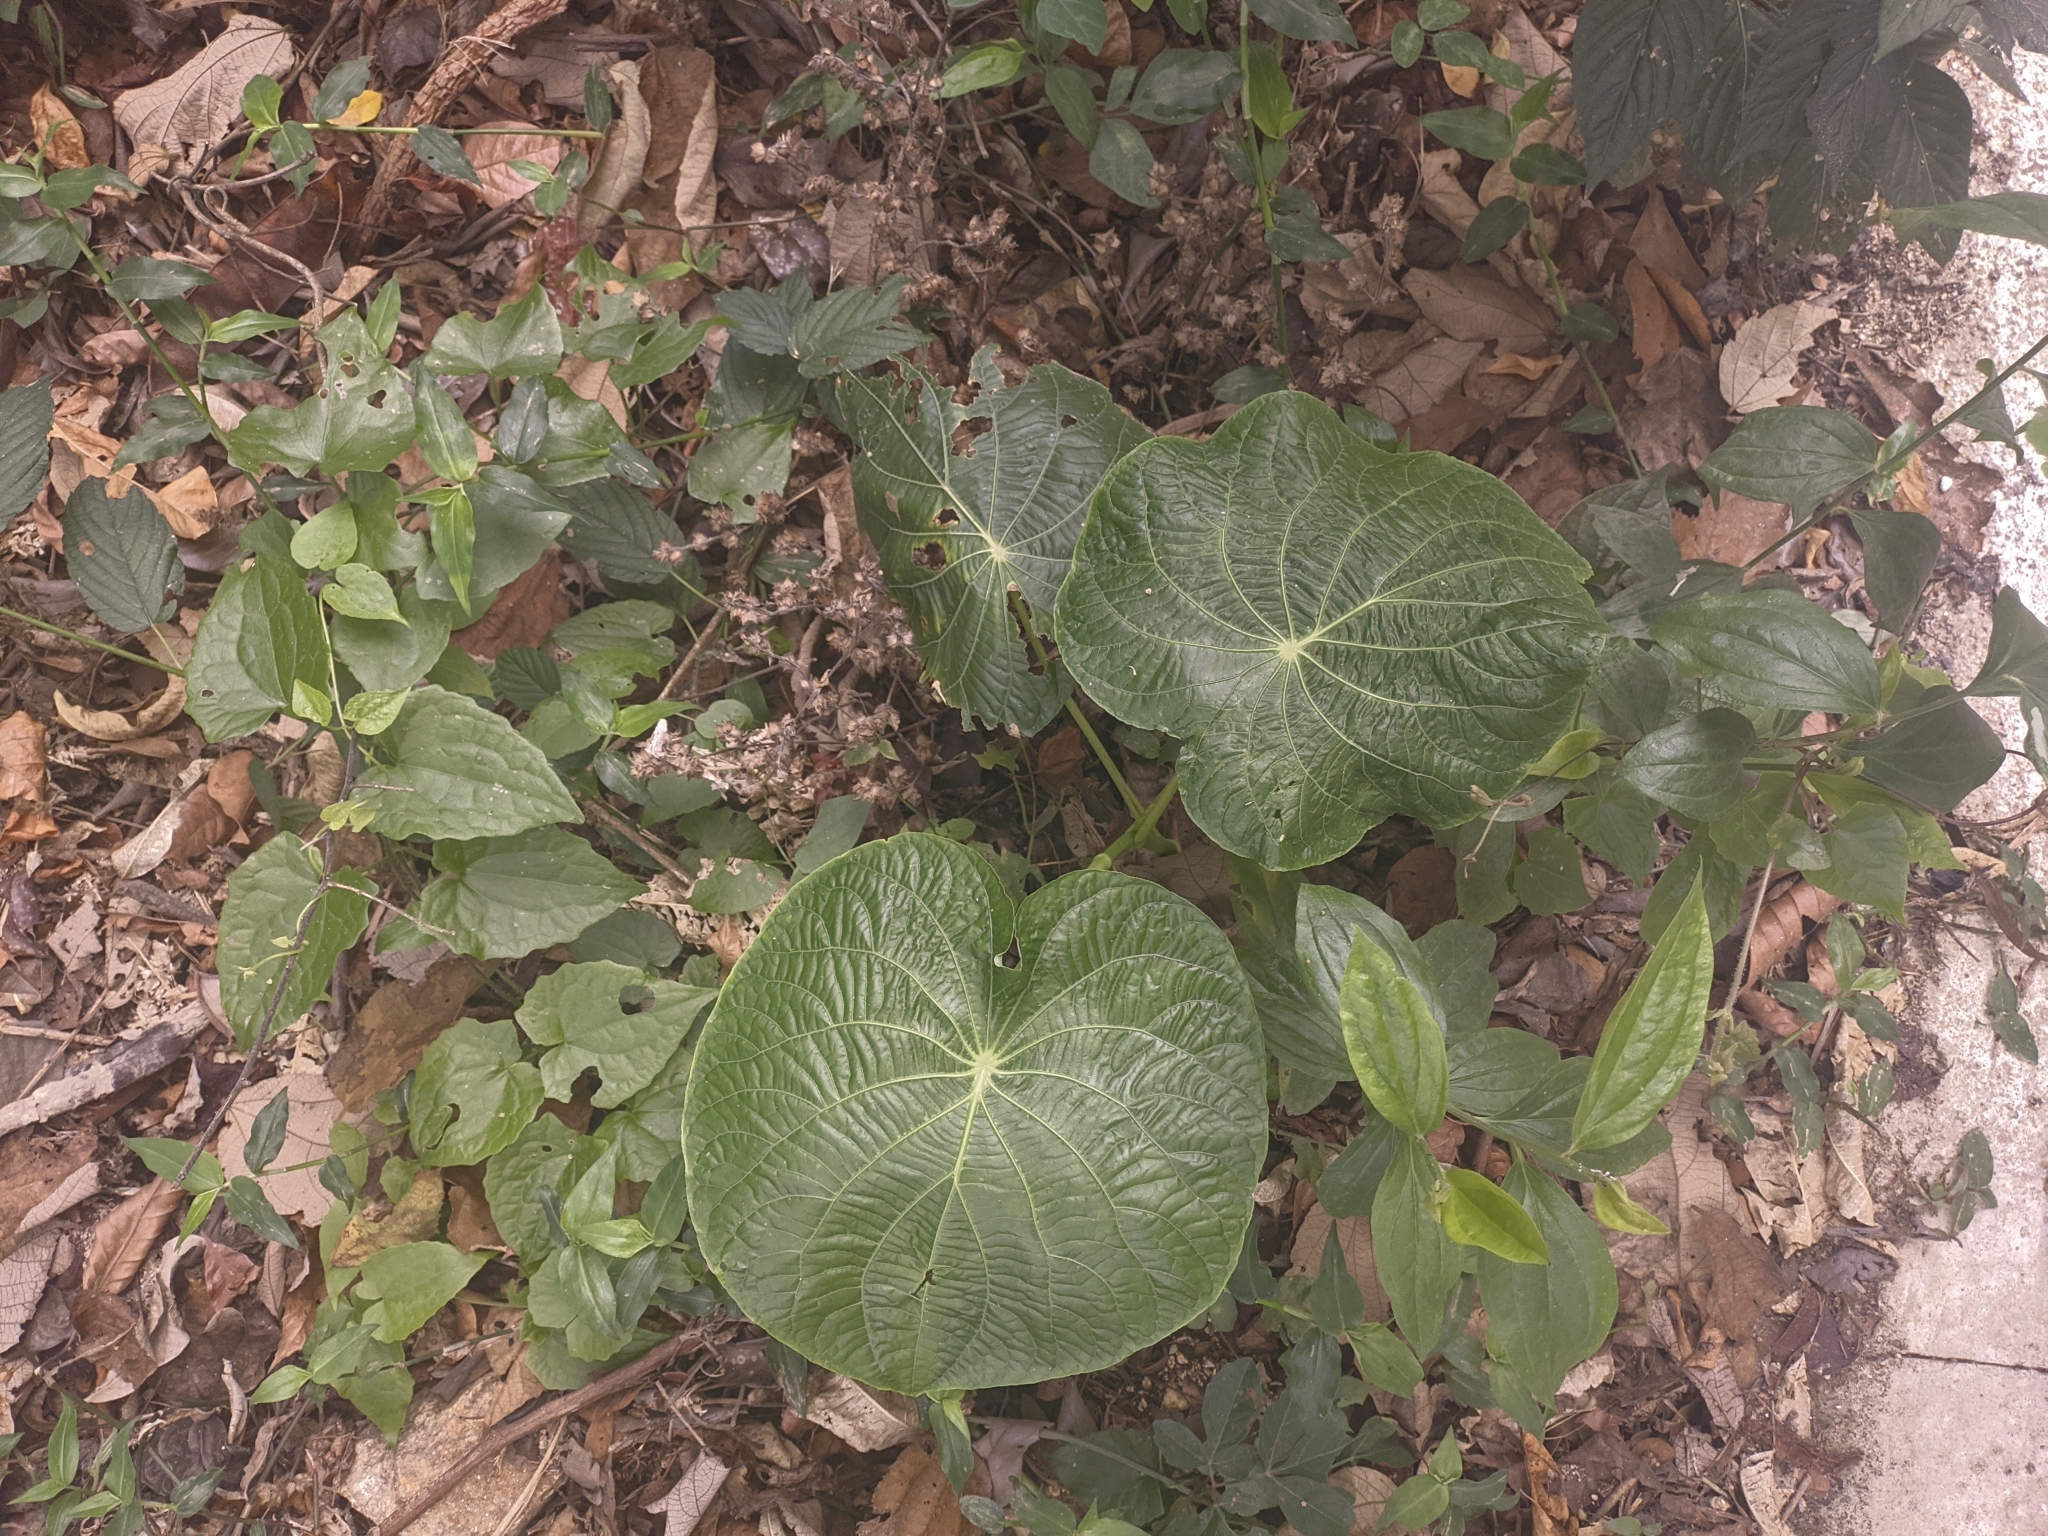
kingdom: Plantae
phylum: Tracheophyta
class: Magnoliopsida
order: Piperales
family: Piperaceae
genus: Piper
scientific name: Piper peltatum
